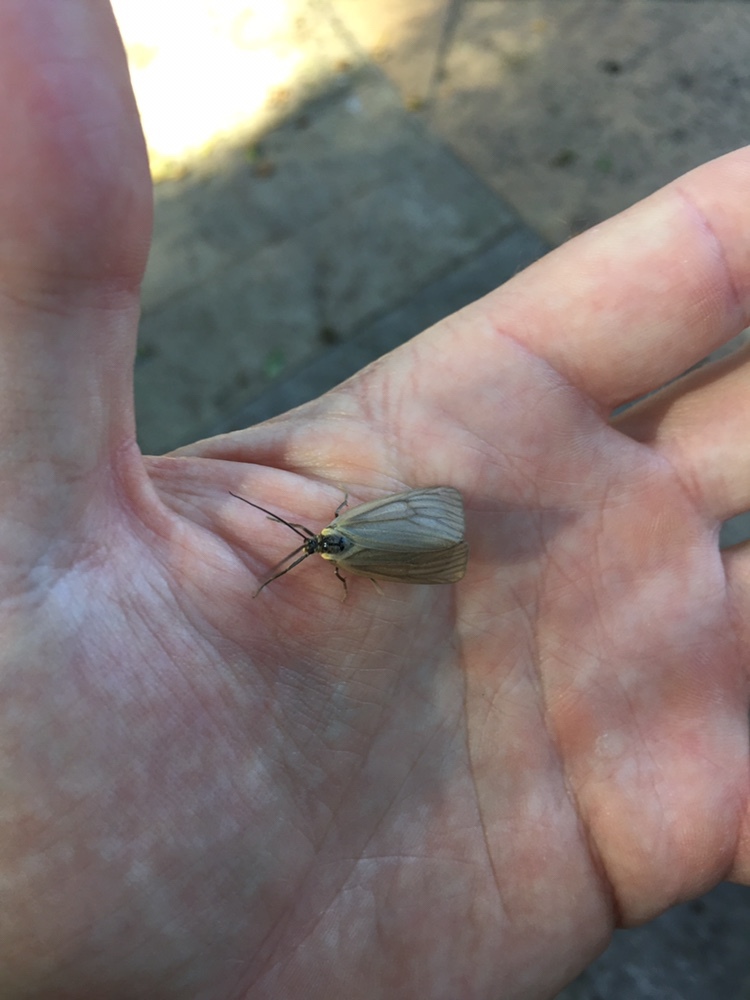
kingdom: Animalia
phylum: Arthropoda
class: Insecta
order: Lepidoptera
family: Notodontidae
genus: Phryganidia
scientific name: Phryganidia californica
